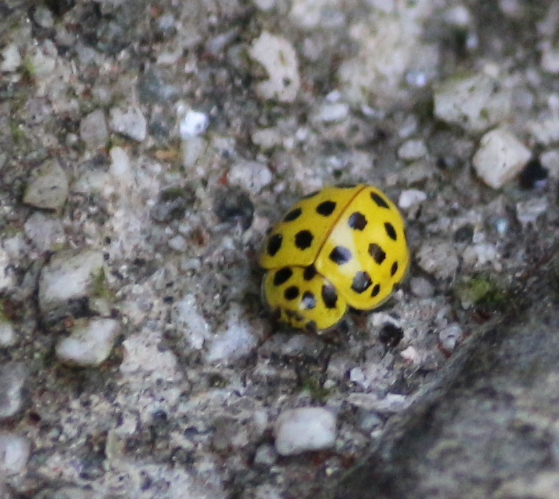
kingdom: Animalia
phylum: Arthropoda
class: Insecta
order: Coleoptera
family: Coccinellidae
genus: Psyllobora
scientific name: Psyllobora vigintiduopunctata
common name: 22-spot ladybird
